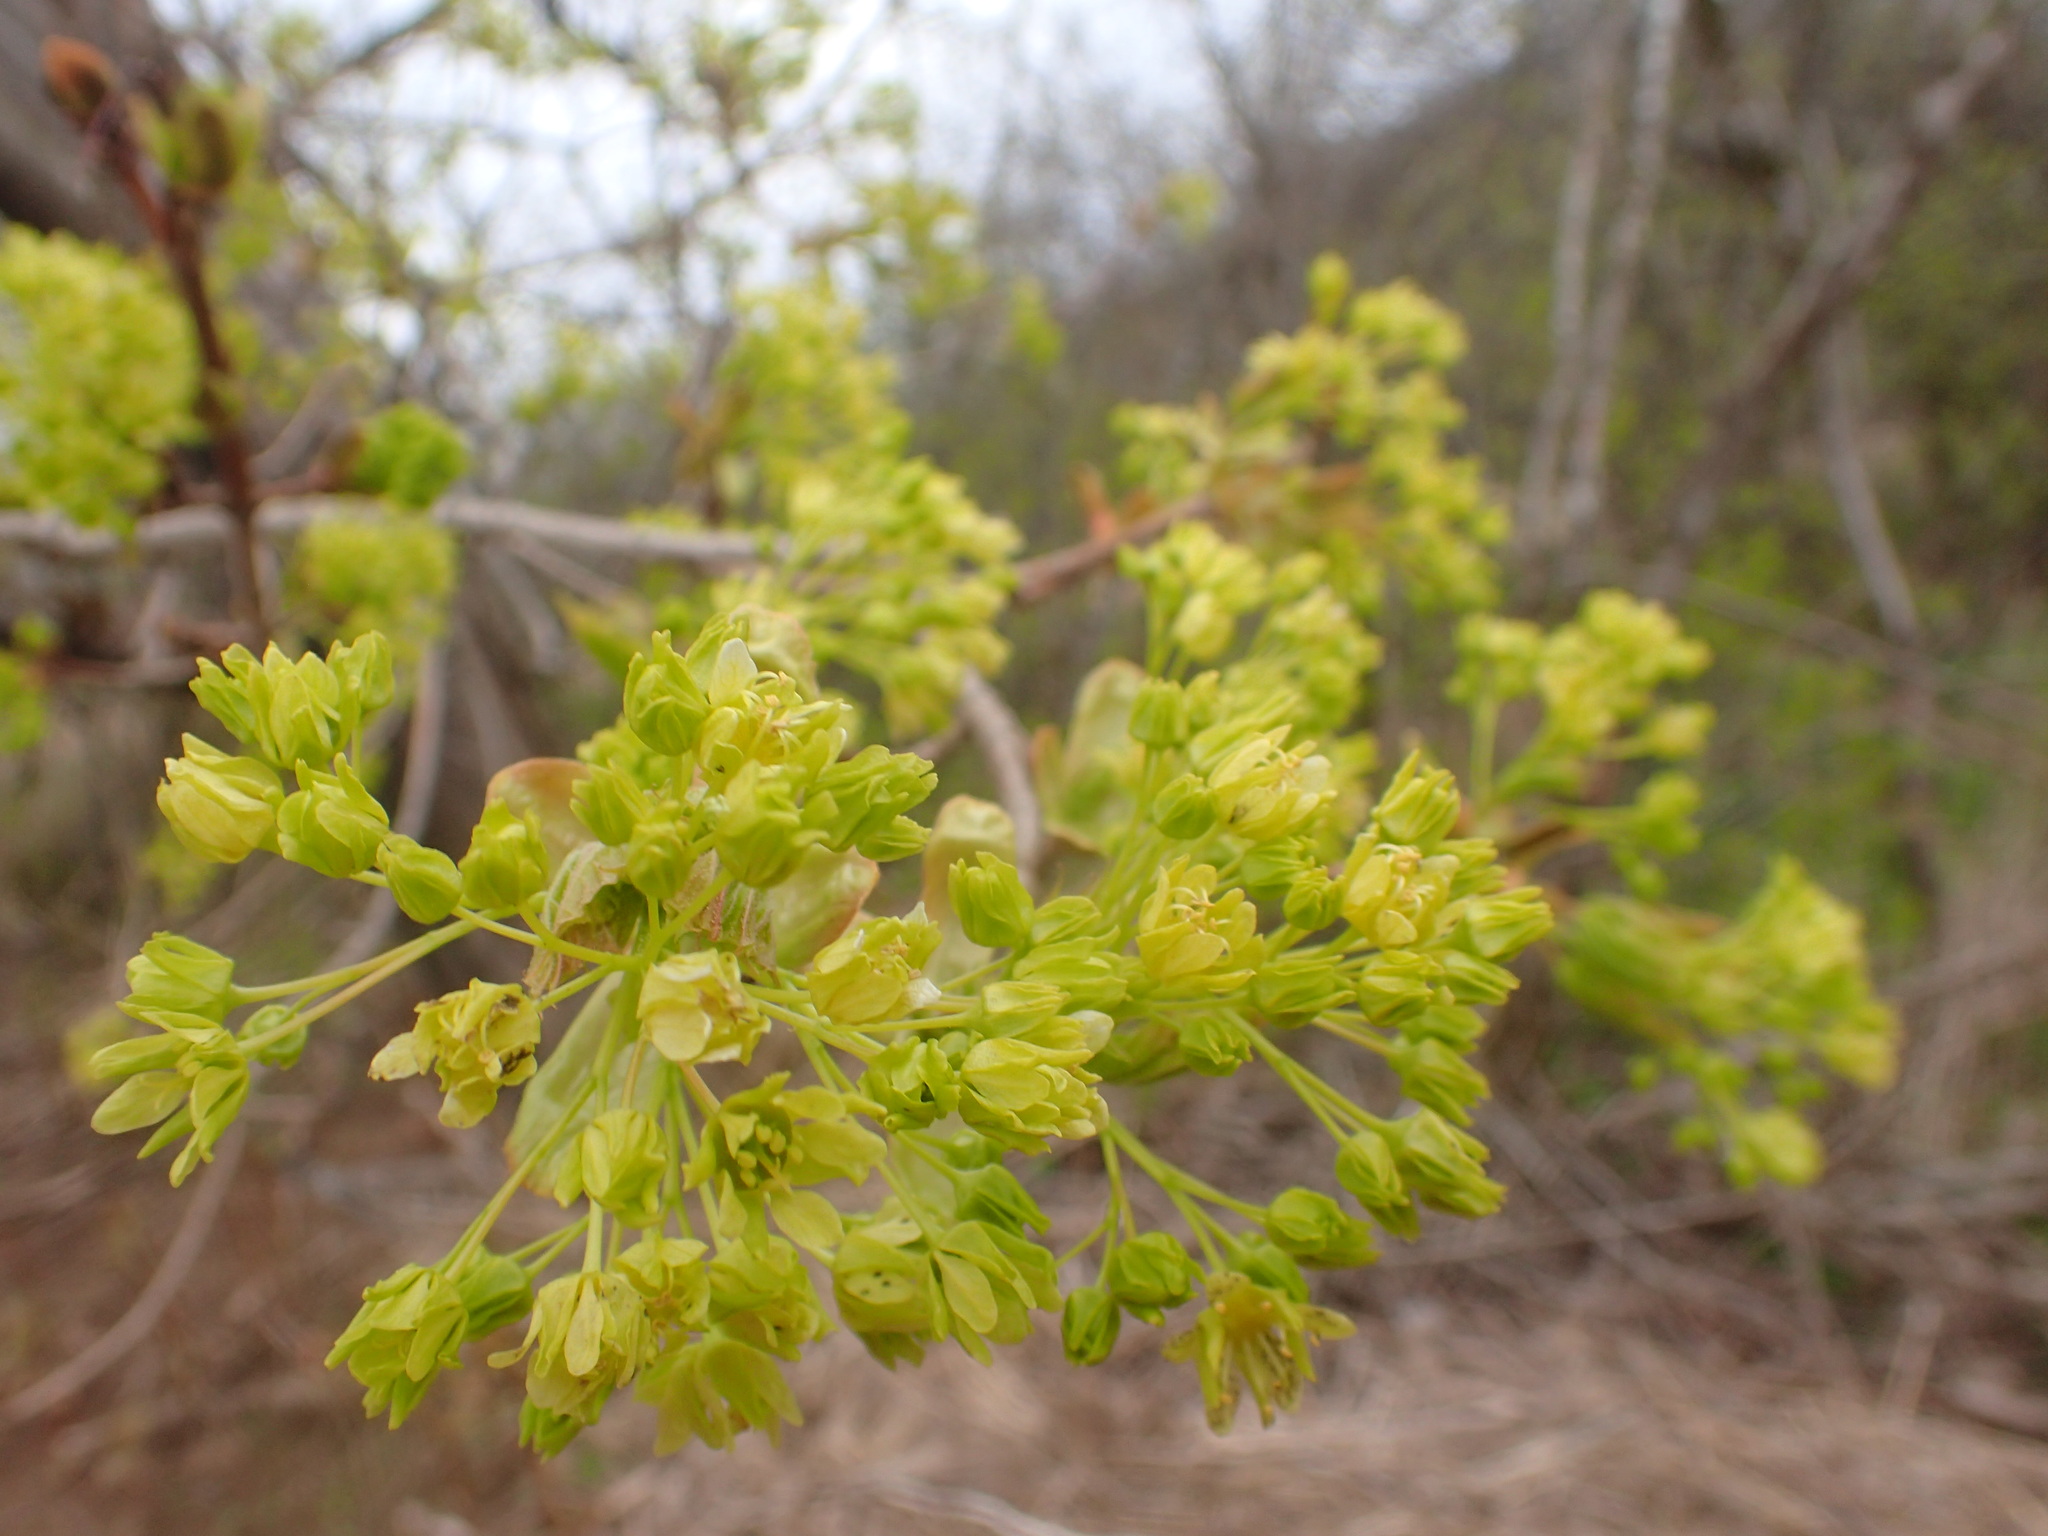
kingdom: Plantae
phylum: Tracheophyta
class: Magnoliopsida
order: Sapindales
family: Sapindaceae
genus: Acer
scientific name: Acer platanoides
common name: Norway maple
